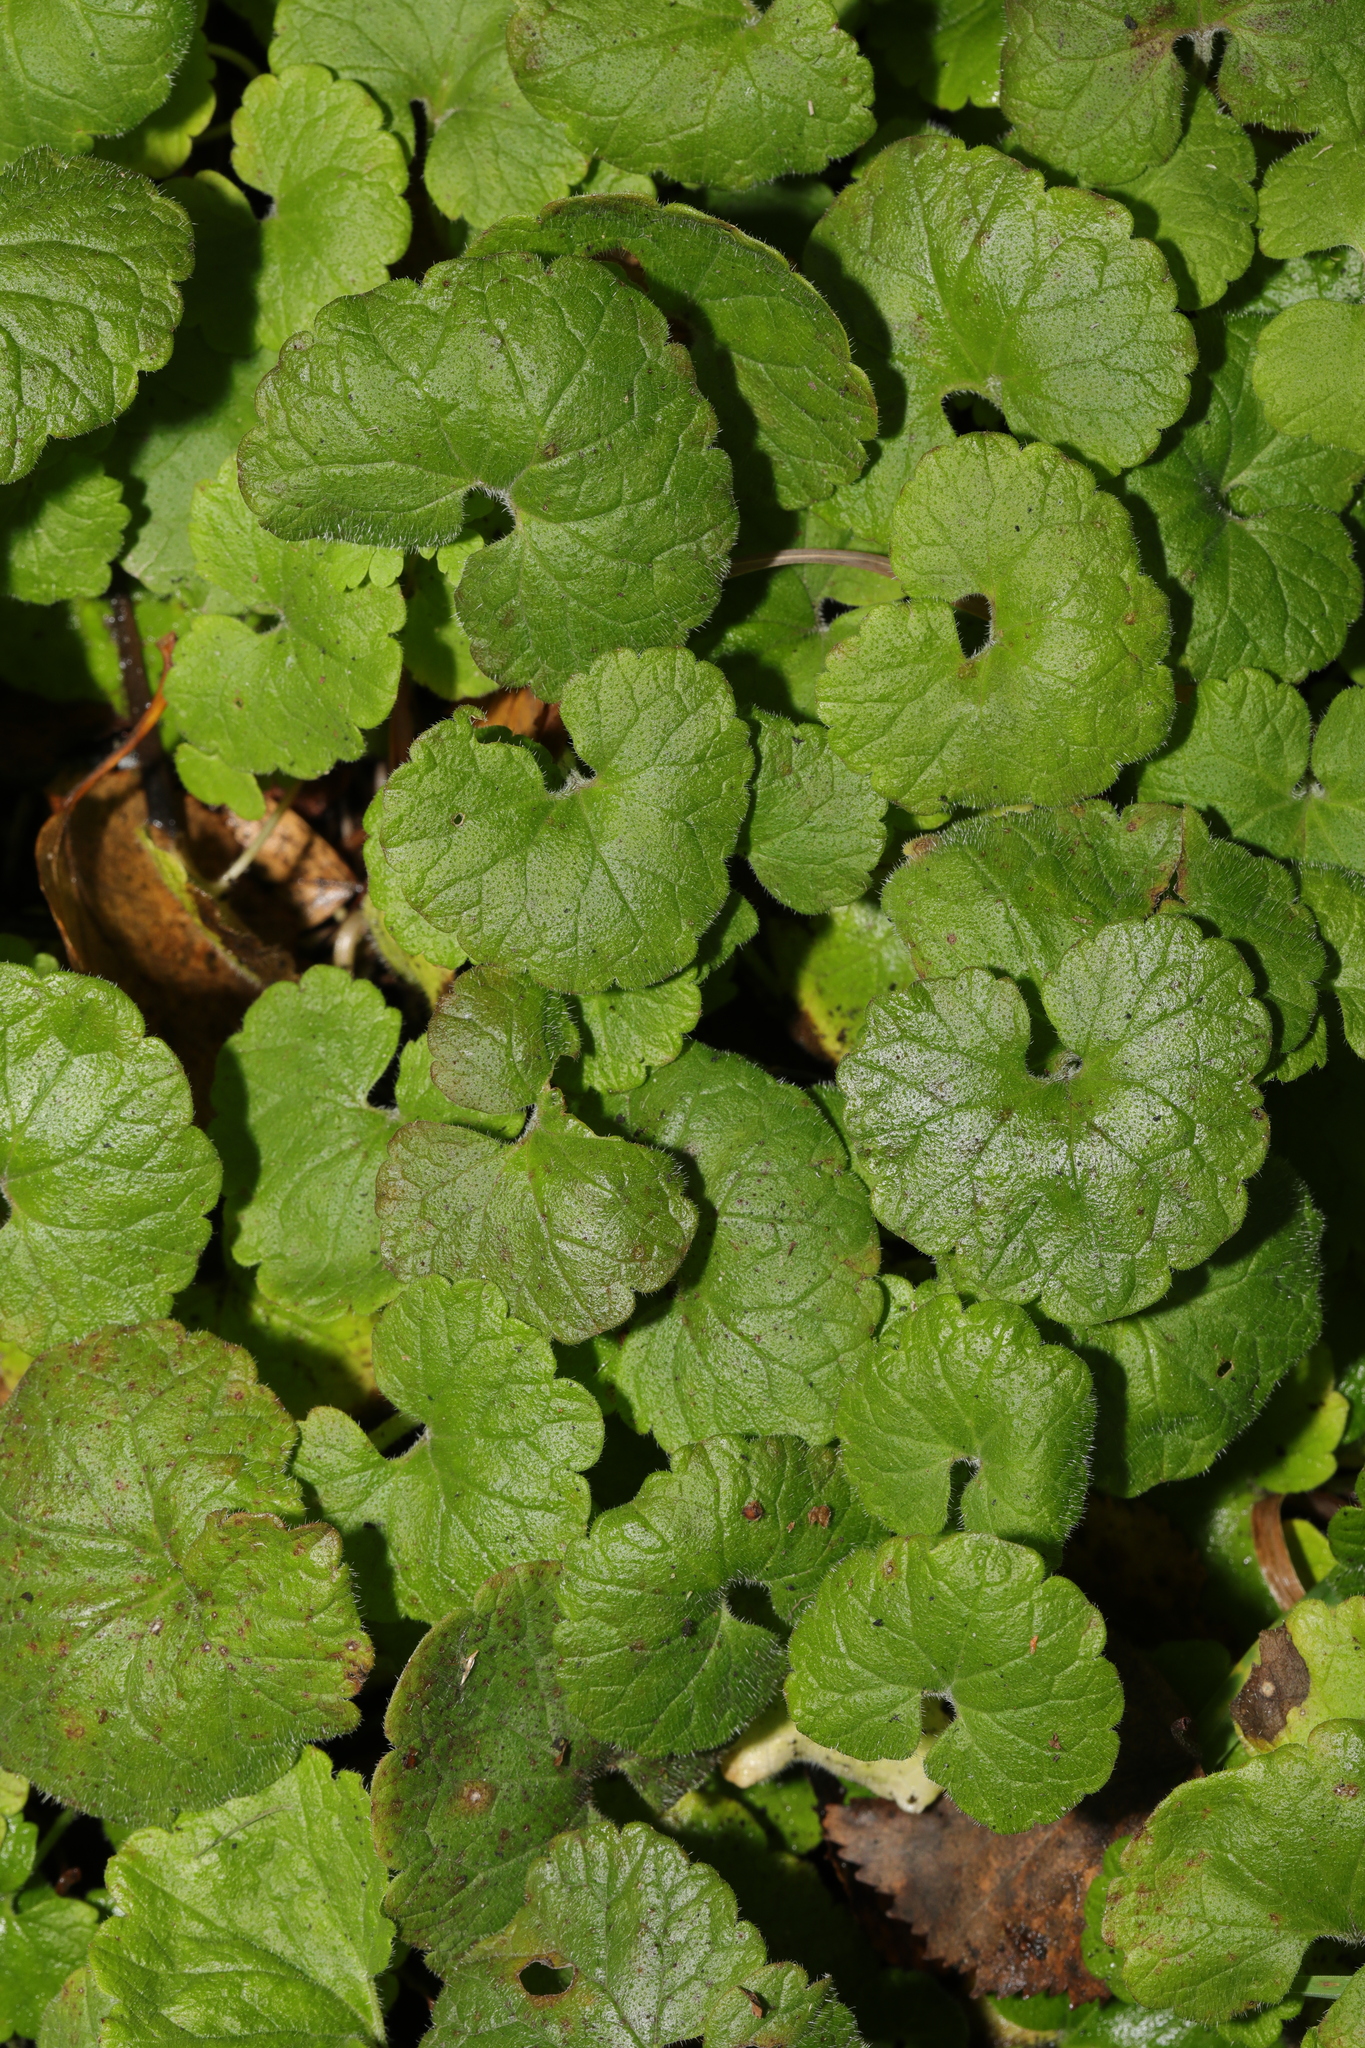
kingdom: Plantae
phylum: Tracheophyta
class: Magnoliopsida
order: Lamiales
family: Lamiaceae
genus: Glechoma
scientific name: Glechoma hederacea
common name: Ground ivy
